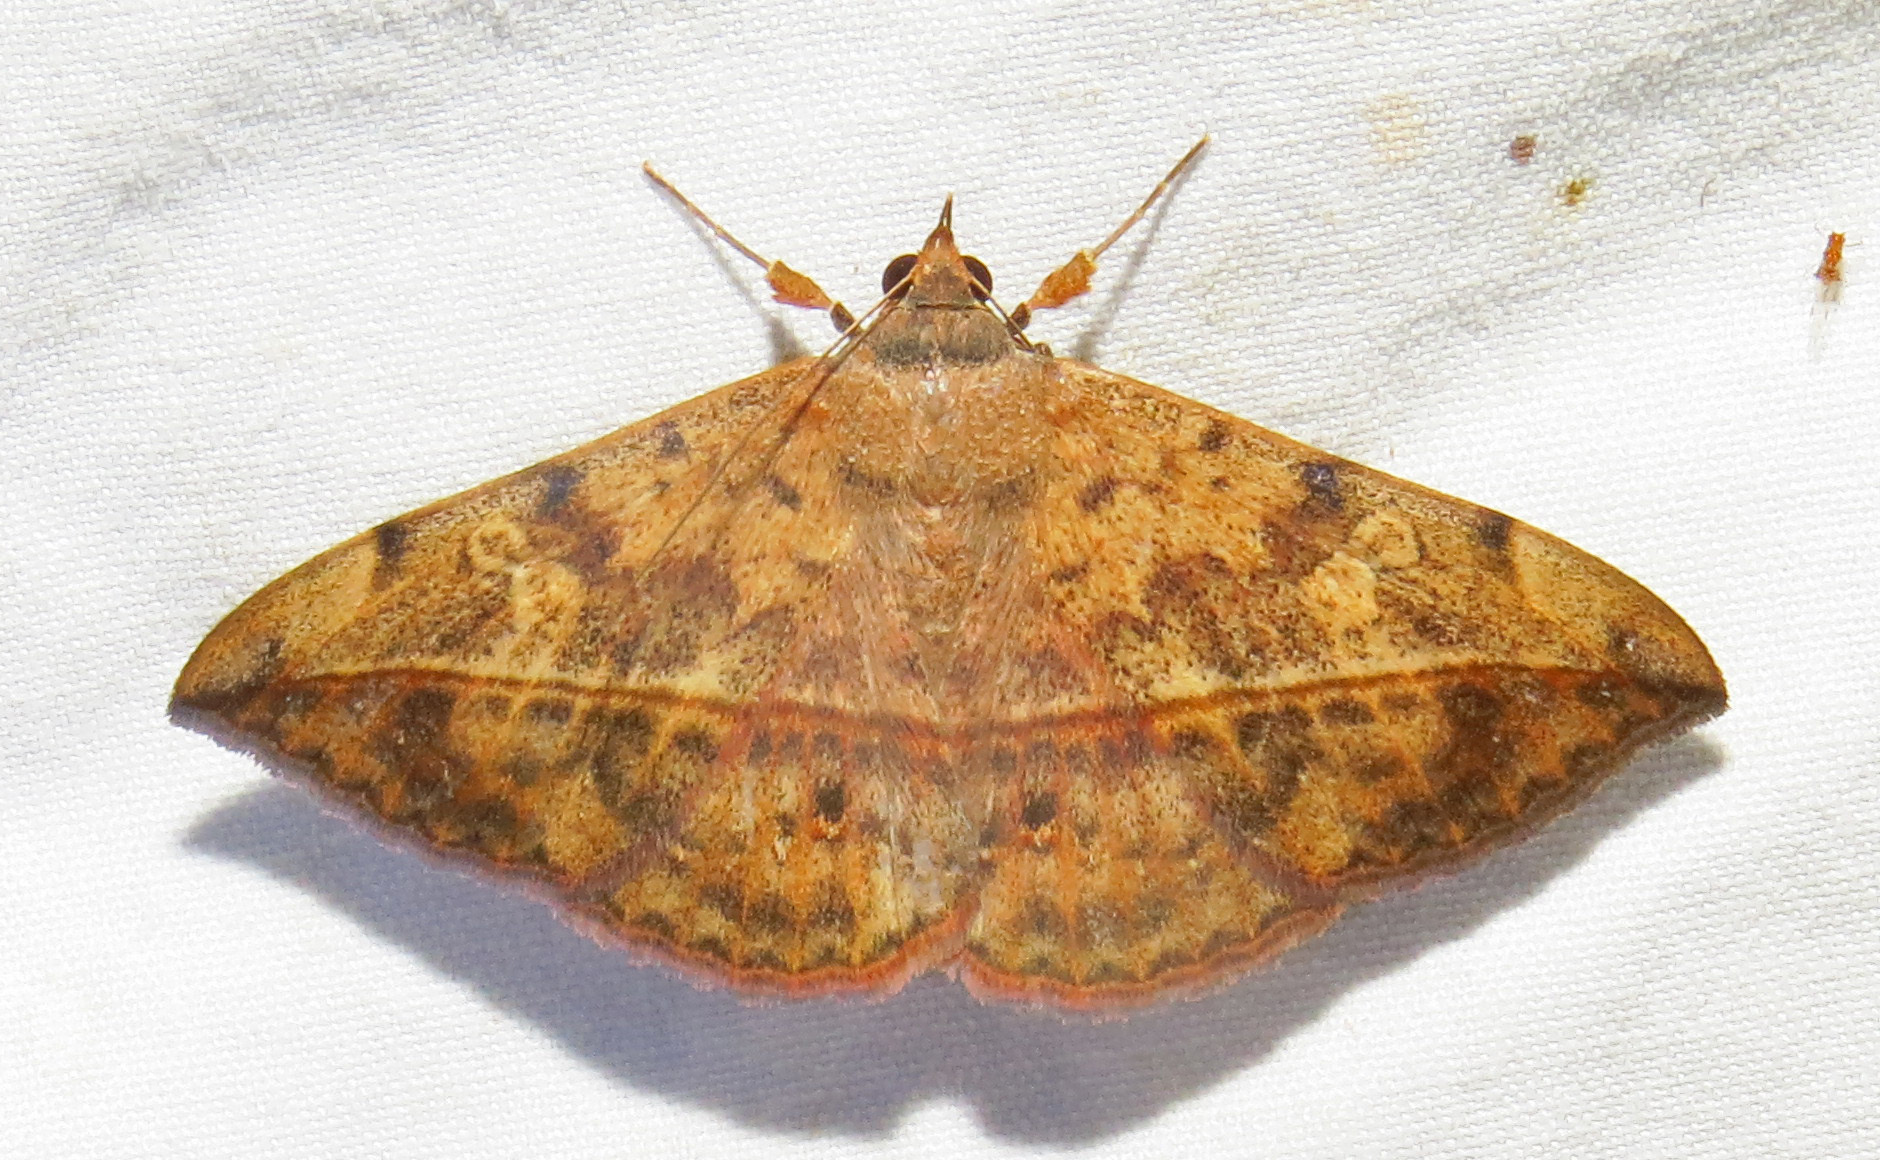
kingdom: Animalia
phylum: Arthropoda
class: Insecta
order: Lepidoptera
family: Erebidae
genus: Anticarsia
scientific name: Anticarsia gemmatalis
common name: Cutworm moth
